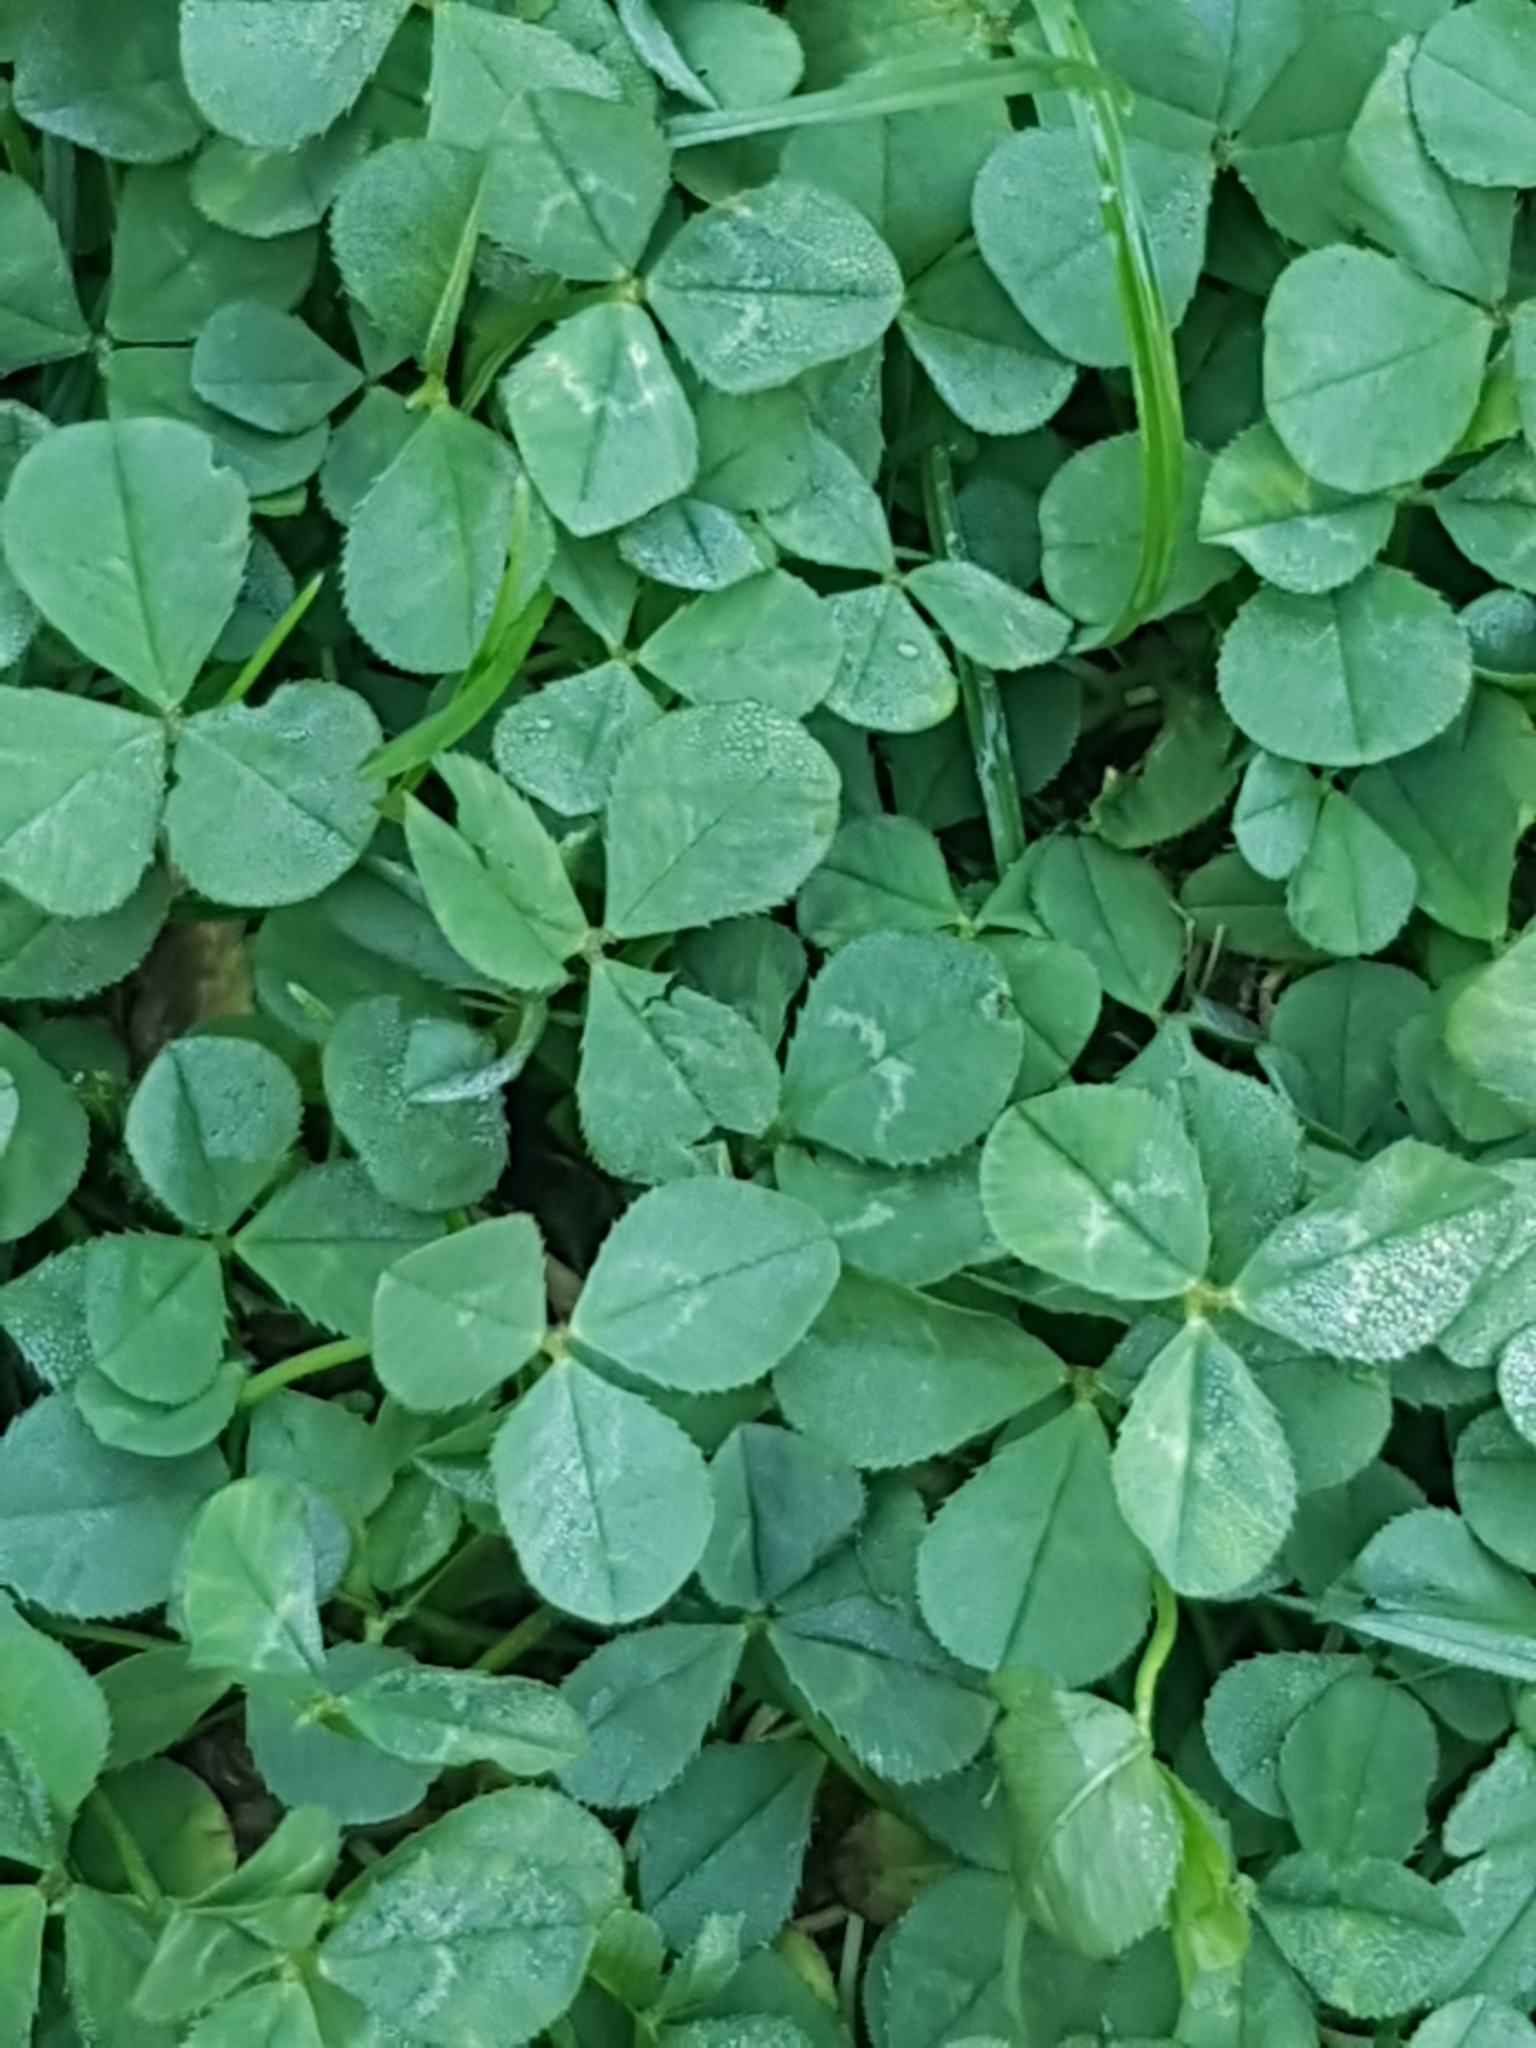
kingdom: Plantae
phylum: Tracheophyta
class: Magnoliopsida
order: Fabales
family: Fabaceae
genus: Trifolium
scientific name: Trifolium repens
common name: White clover
